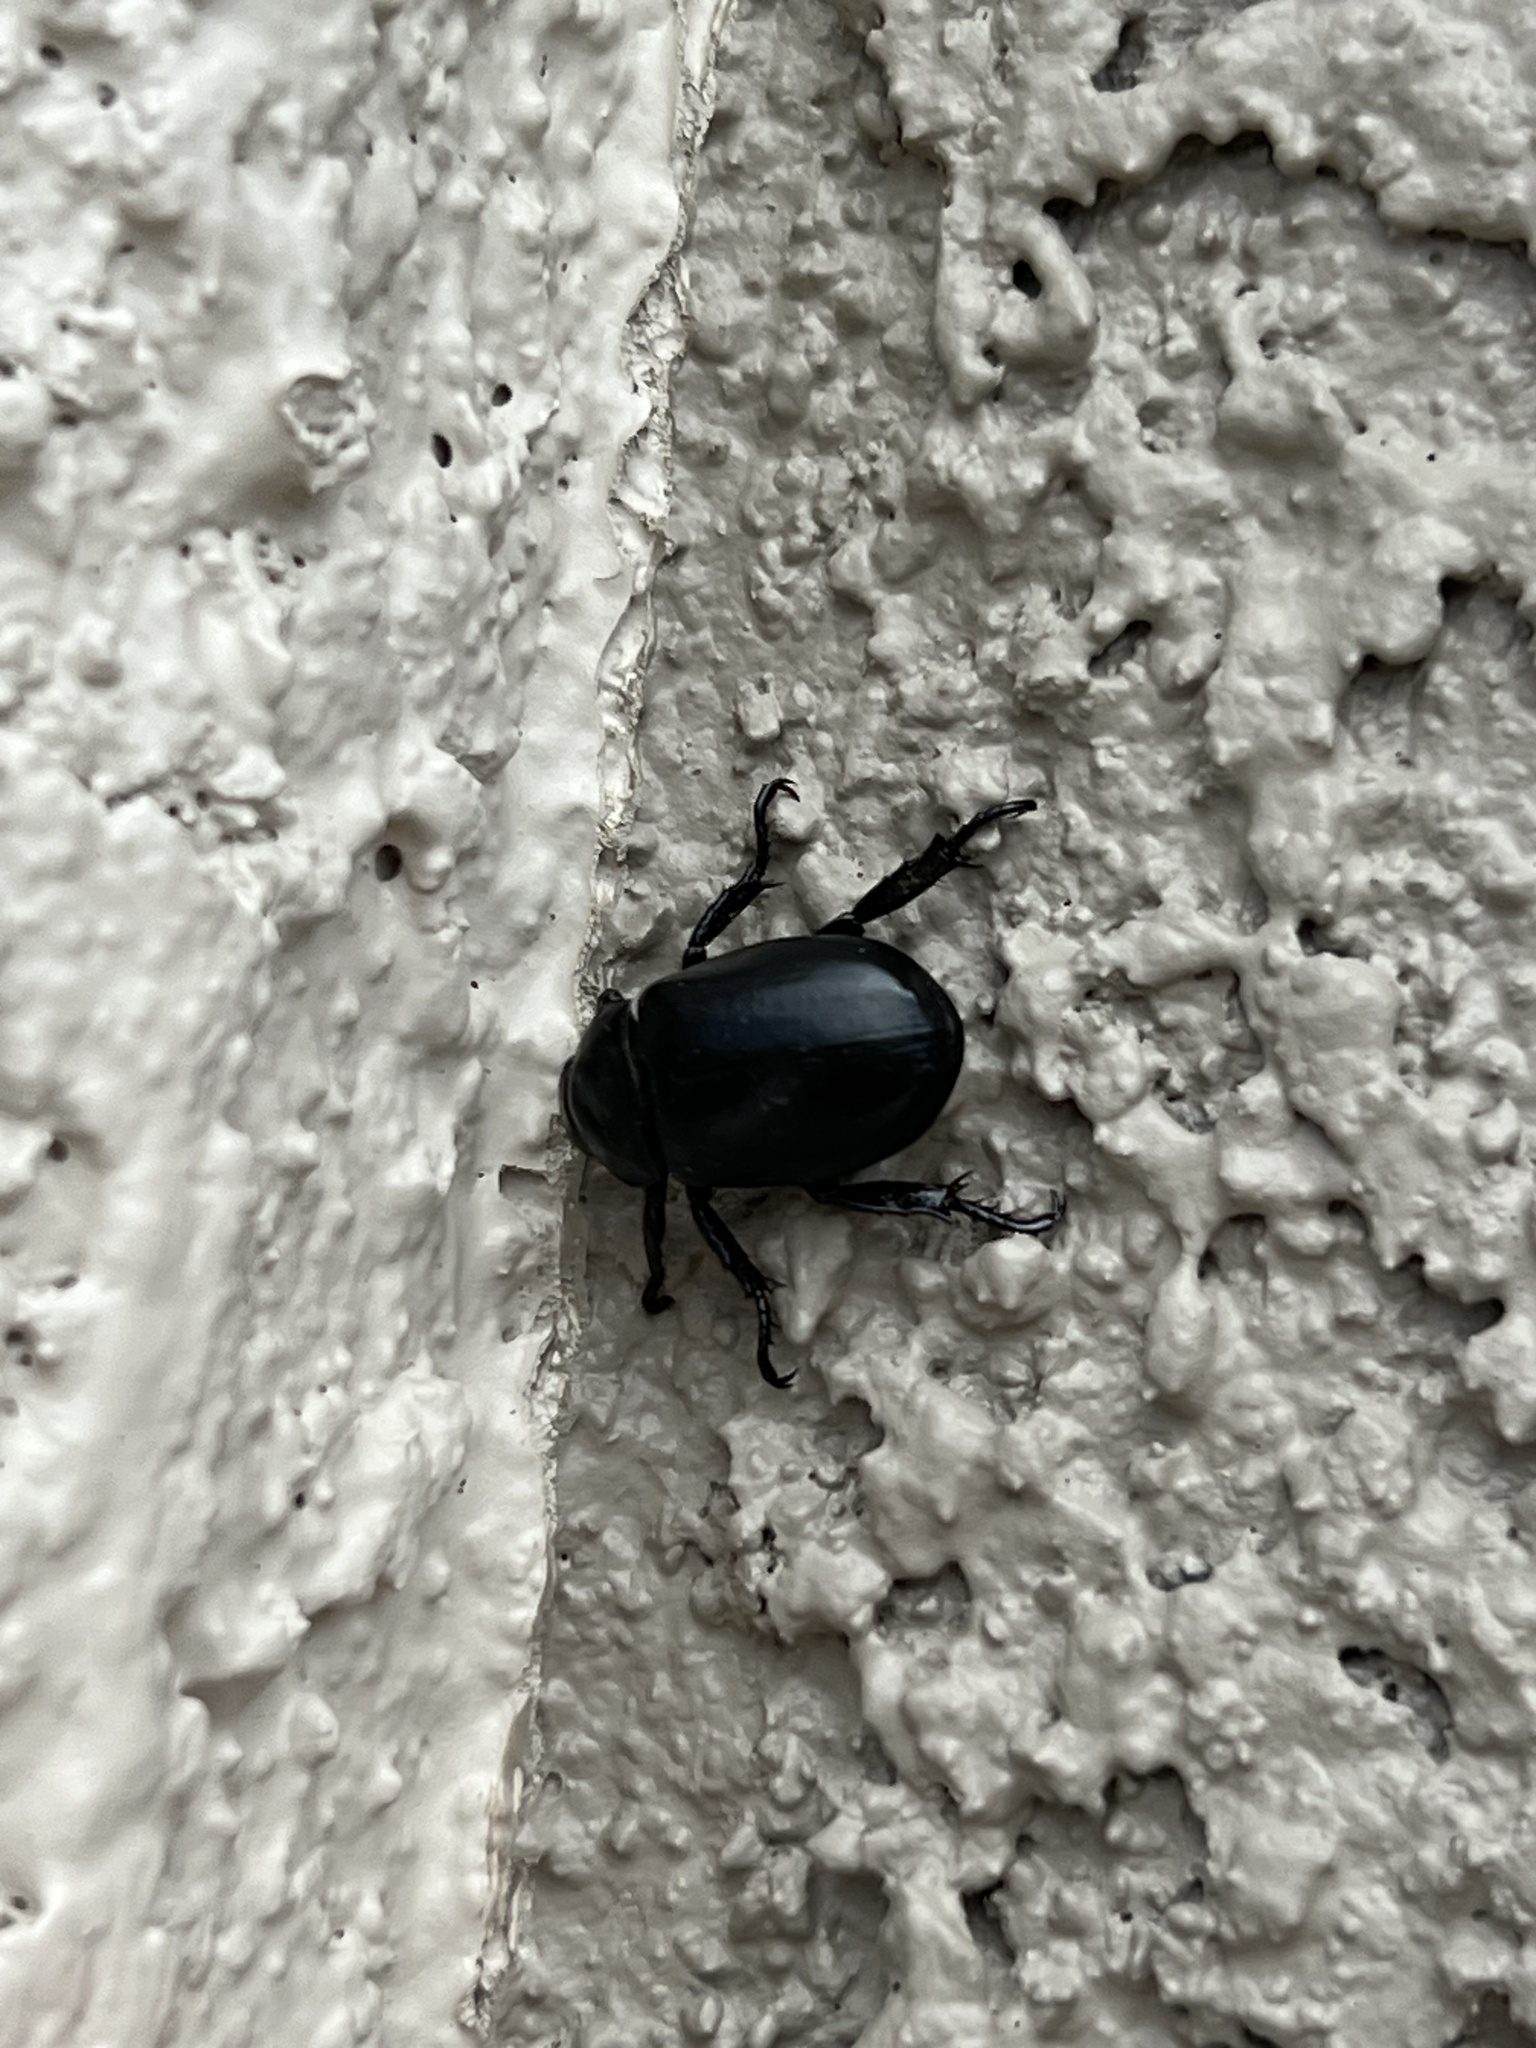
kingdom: Animalia
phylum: Arthropoda
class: Insecta
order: Coleoptera
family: Scarabaeidae
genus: Pelidnota
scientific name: Pelidnota lugubris
